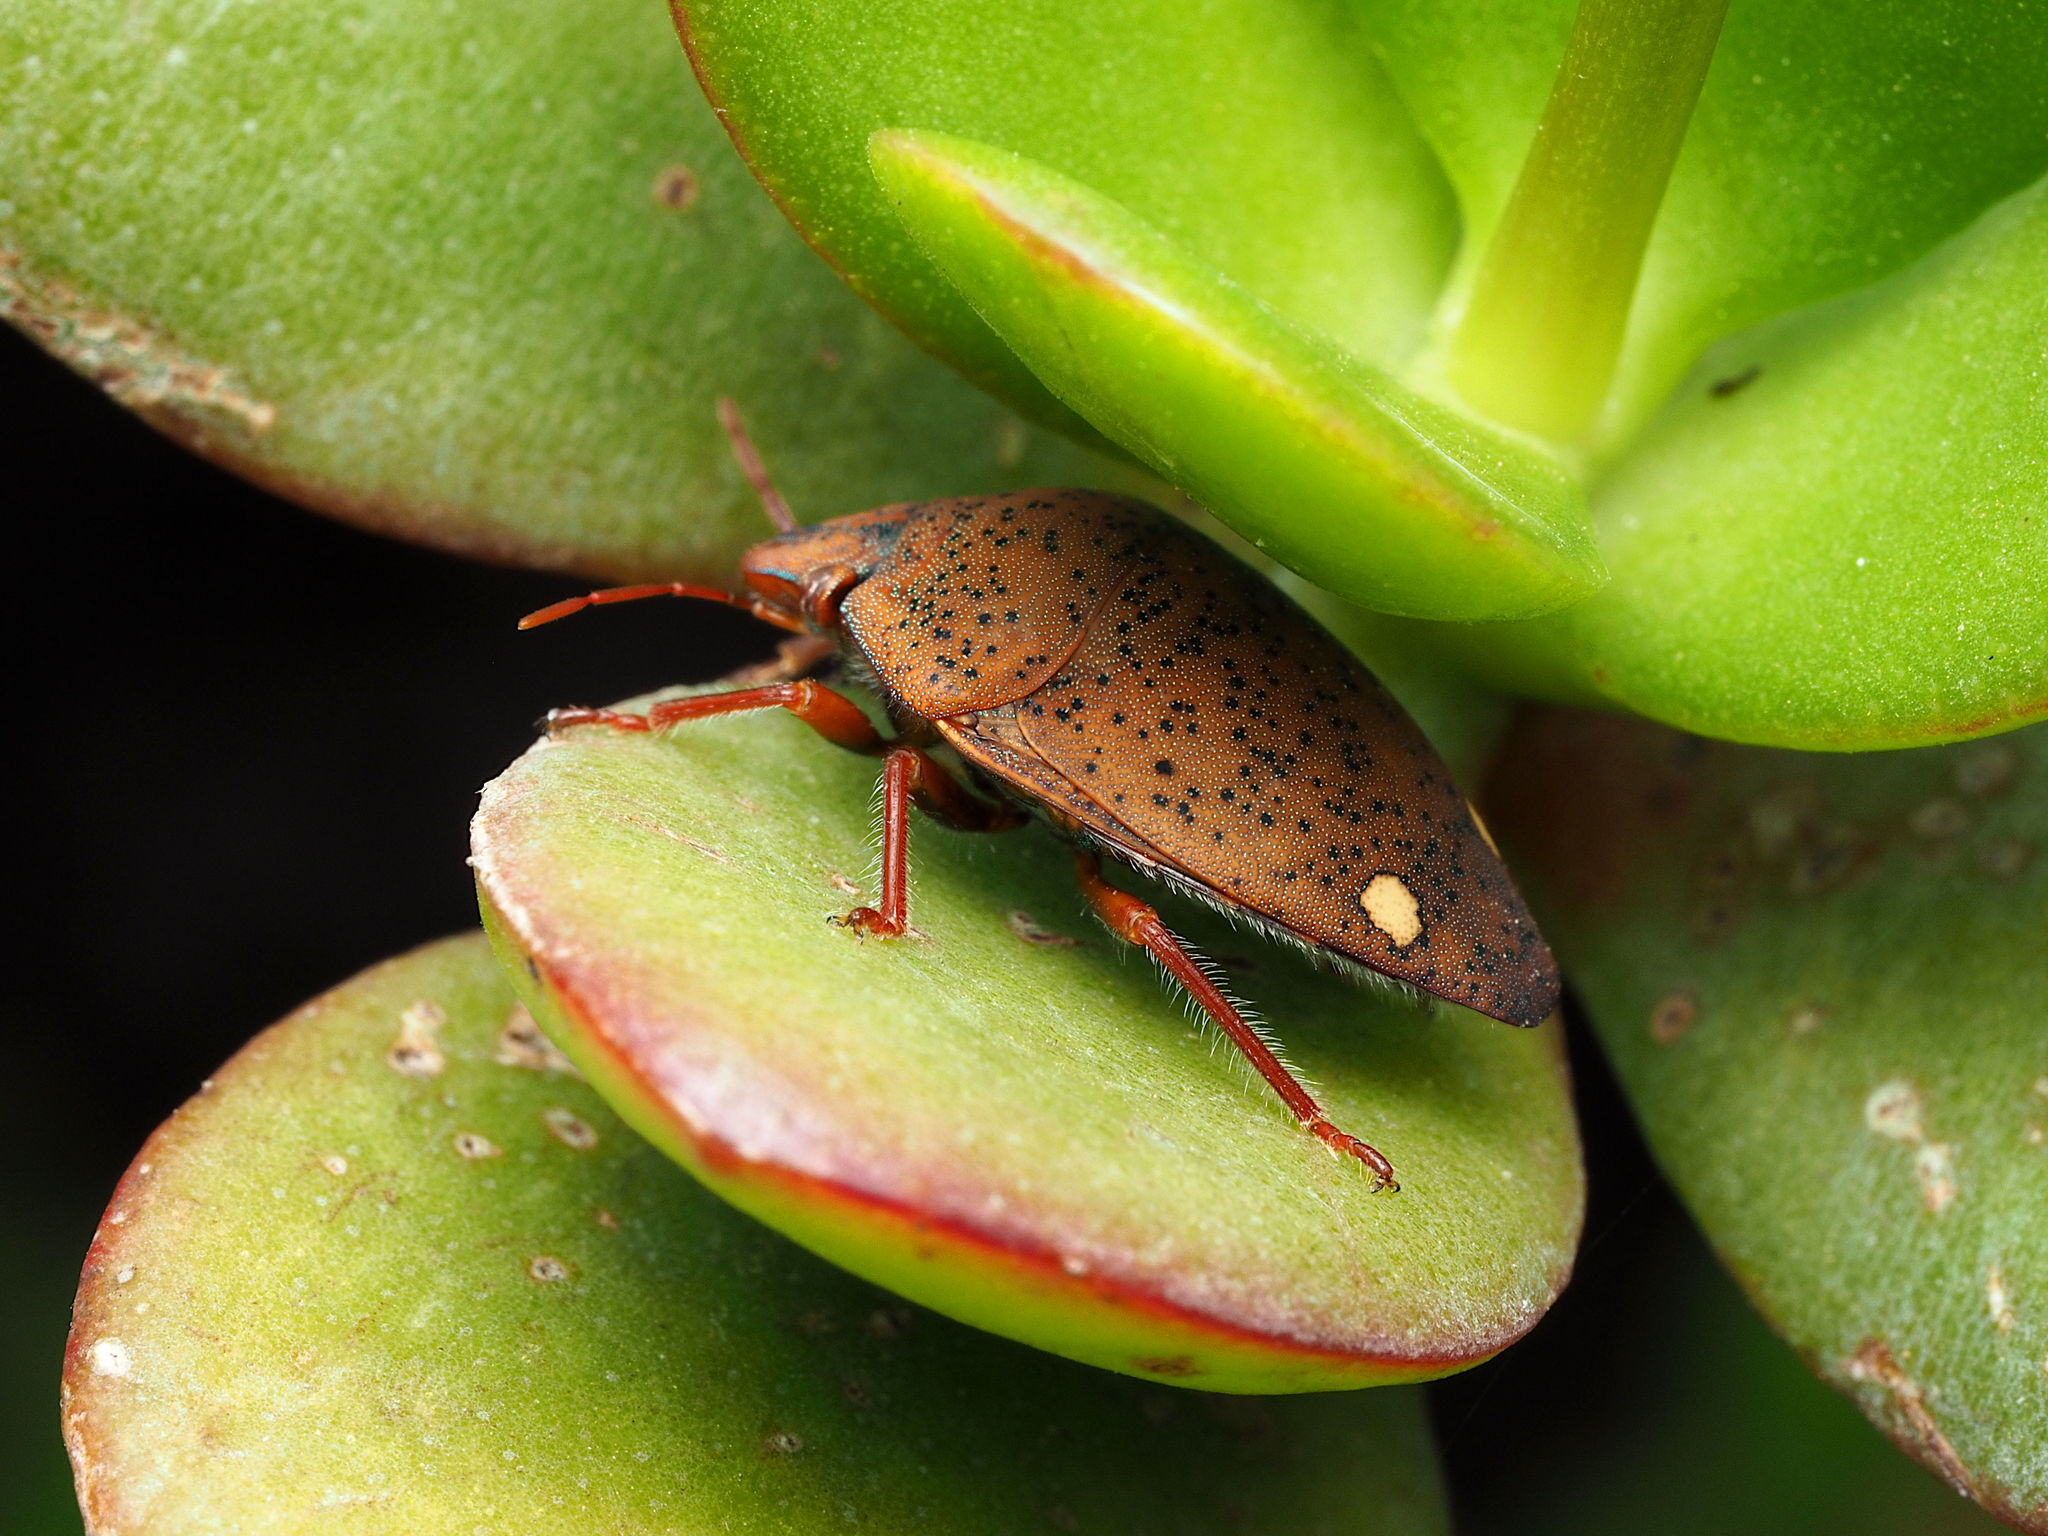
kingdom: Animalia
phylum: Arthropoda
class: Insecta
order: Hemiptera
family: Scutelleridae
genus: Solenosthedium
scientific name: Solenosthedium bilunatum
